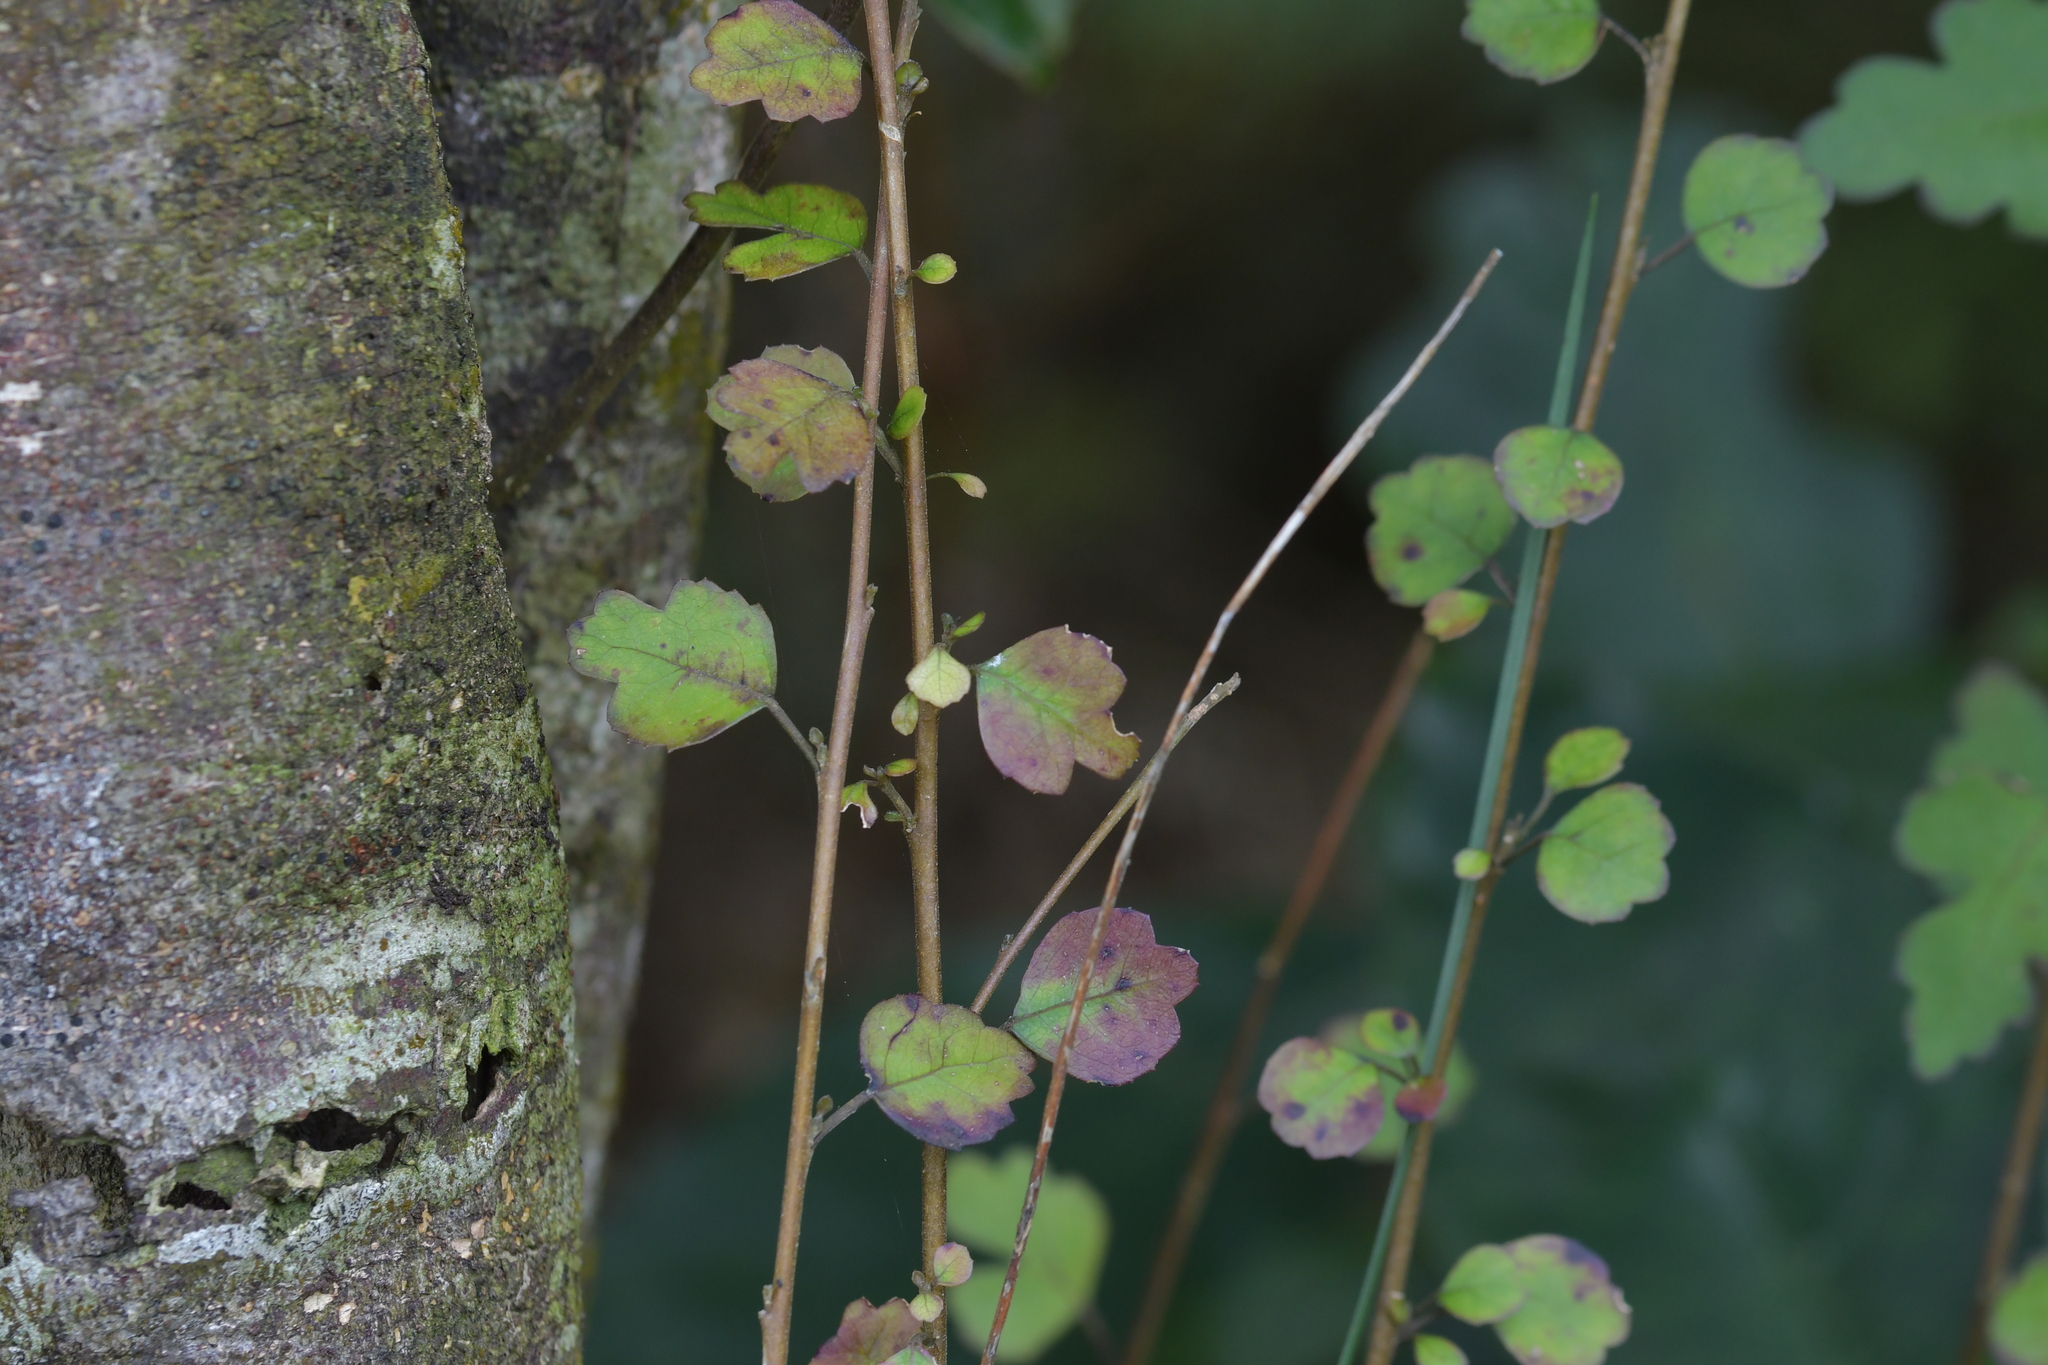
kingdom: Plantae
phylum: Tracheophyta
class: Magnoliopsida
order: Malvales
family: Malvaceae
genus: Hoheria
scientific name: Hoheria sexstylosa
